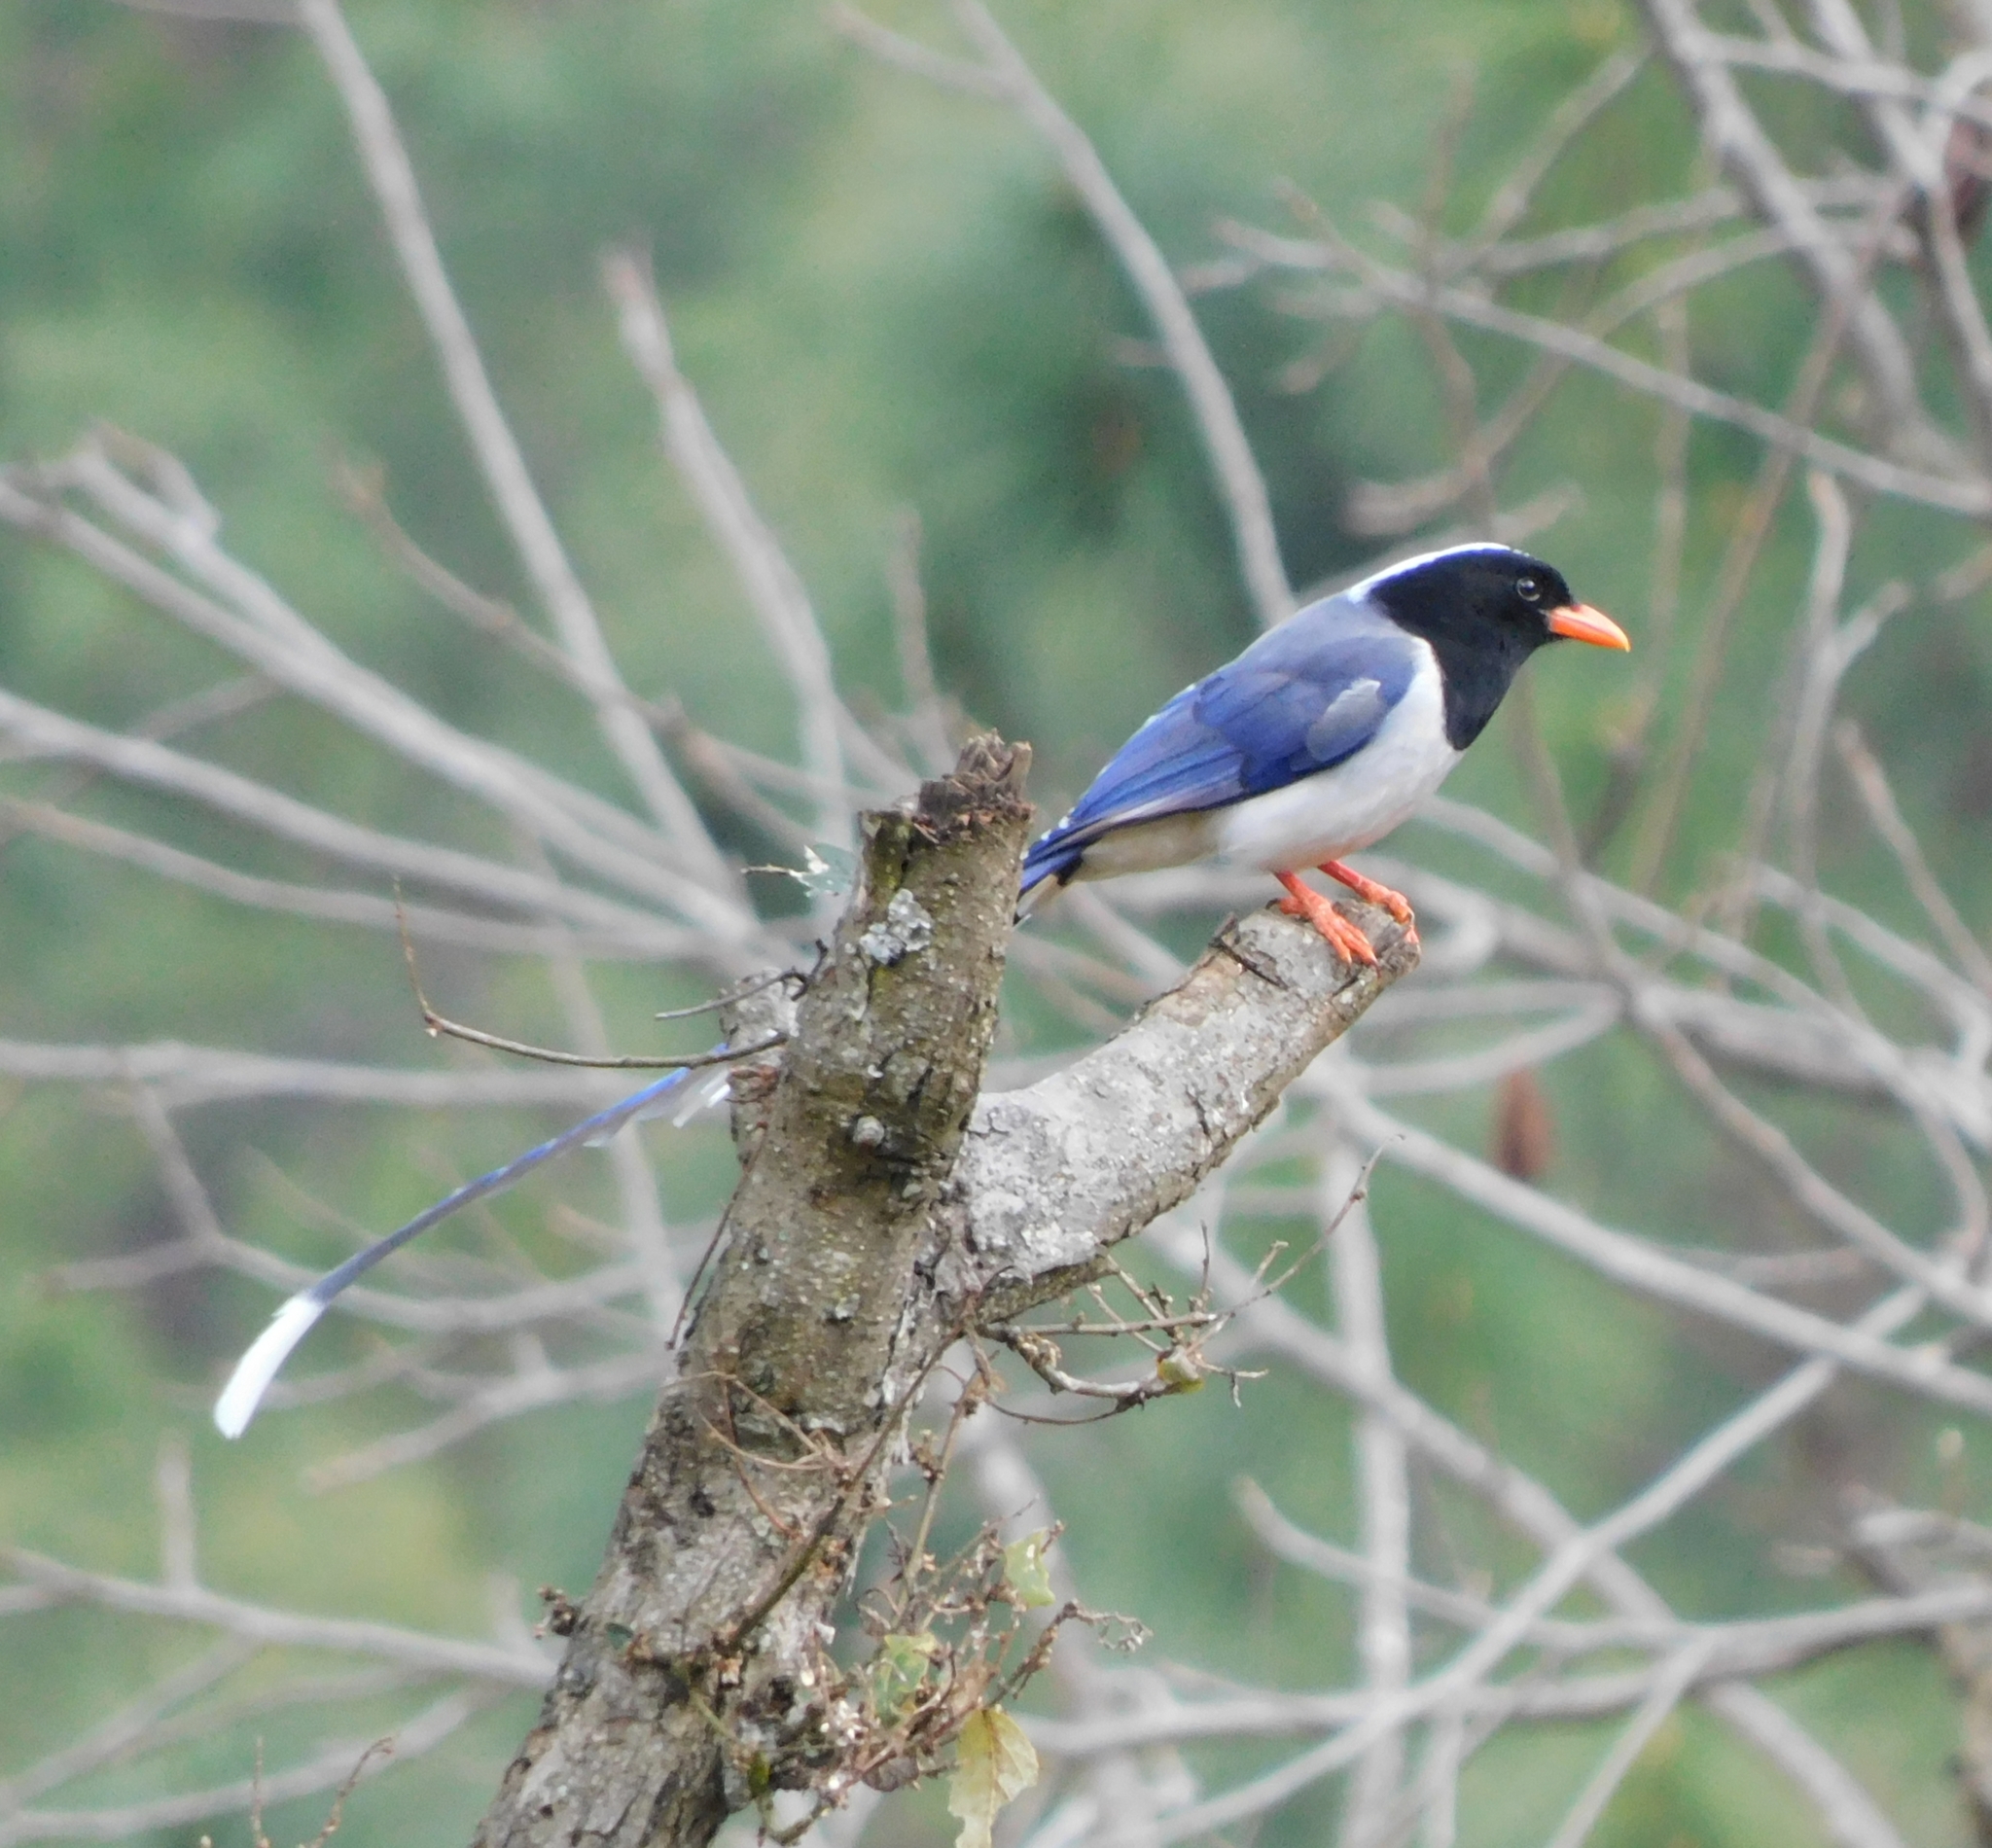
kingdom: Animalia
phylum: Chordata
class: Aves
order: Passeriformes
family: Corvidae
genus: Urocissa
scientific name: Urocissa erythroryncha
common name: Red-billed blue magpie
